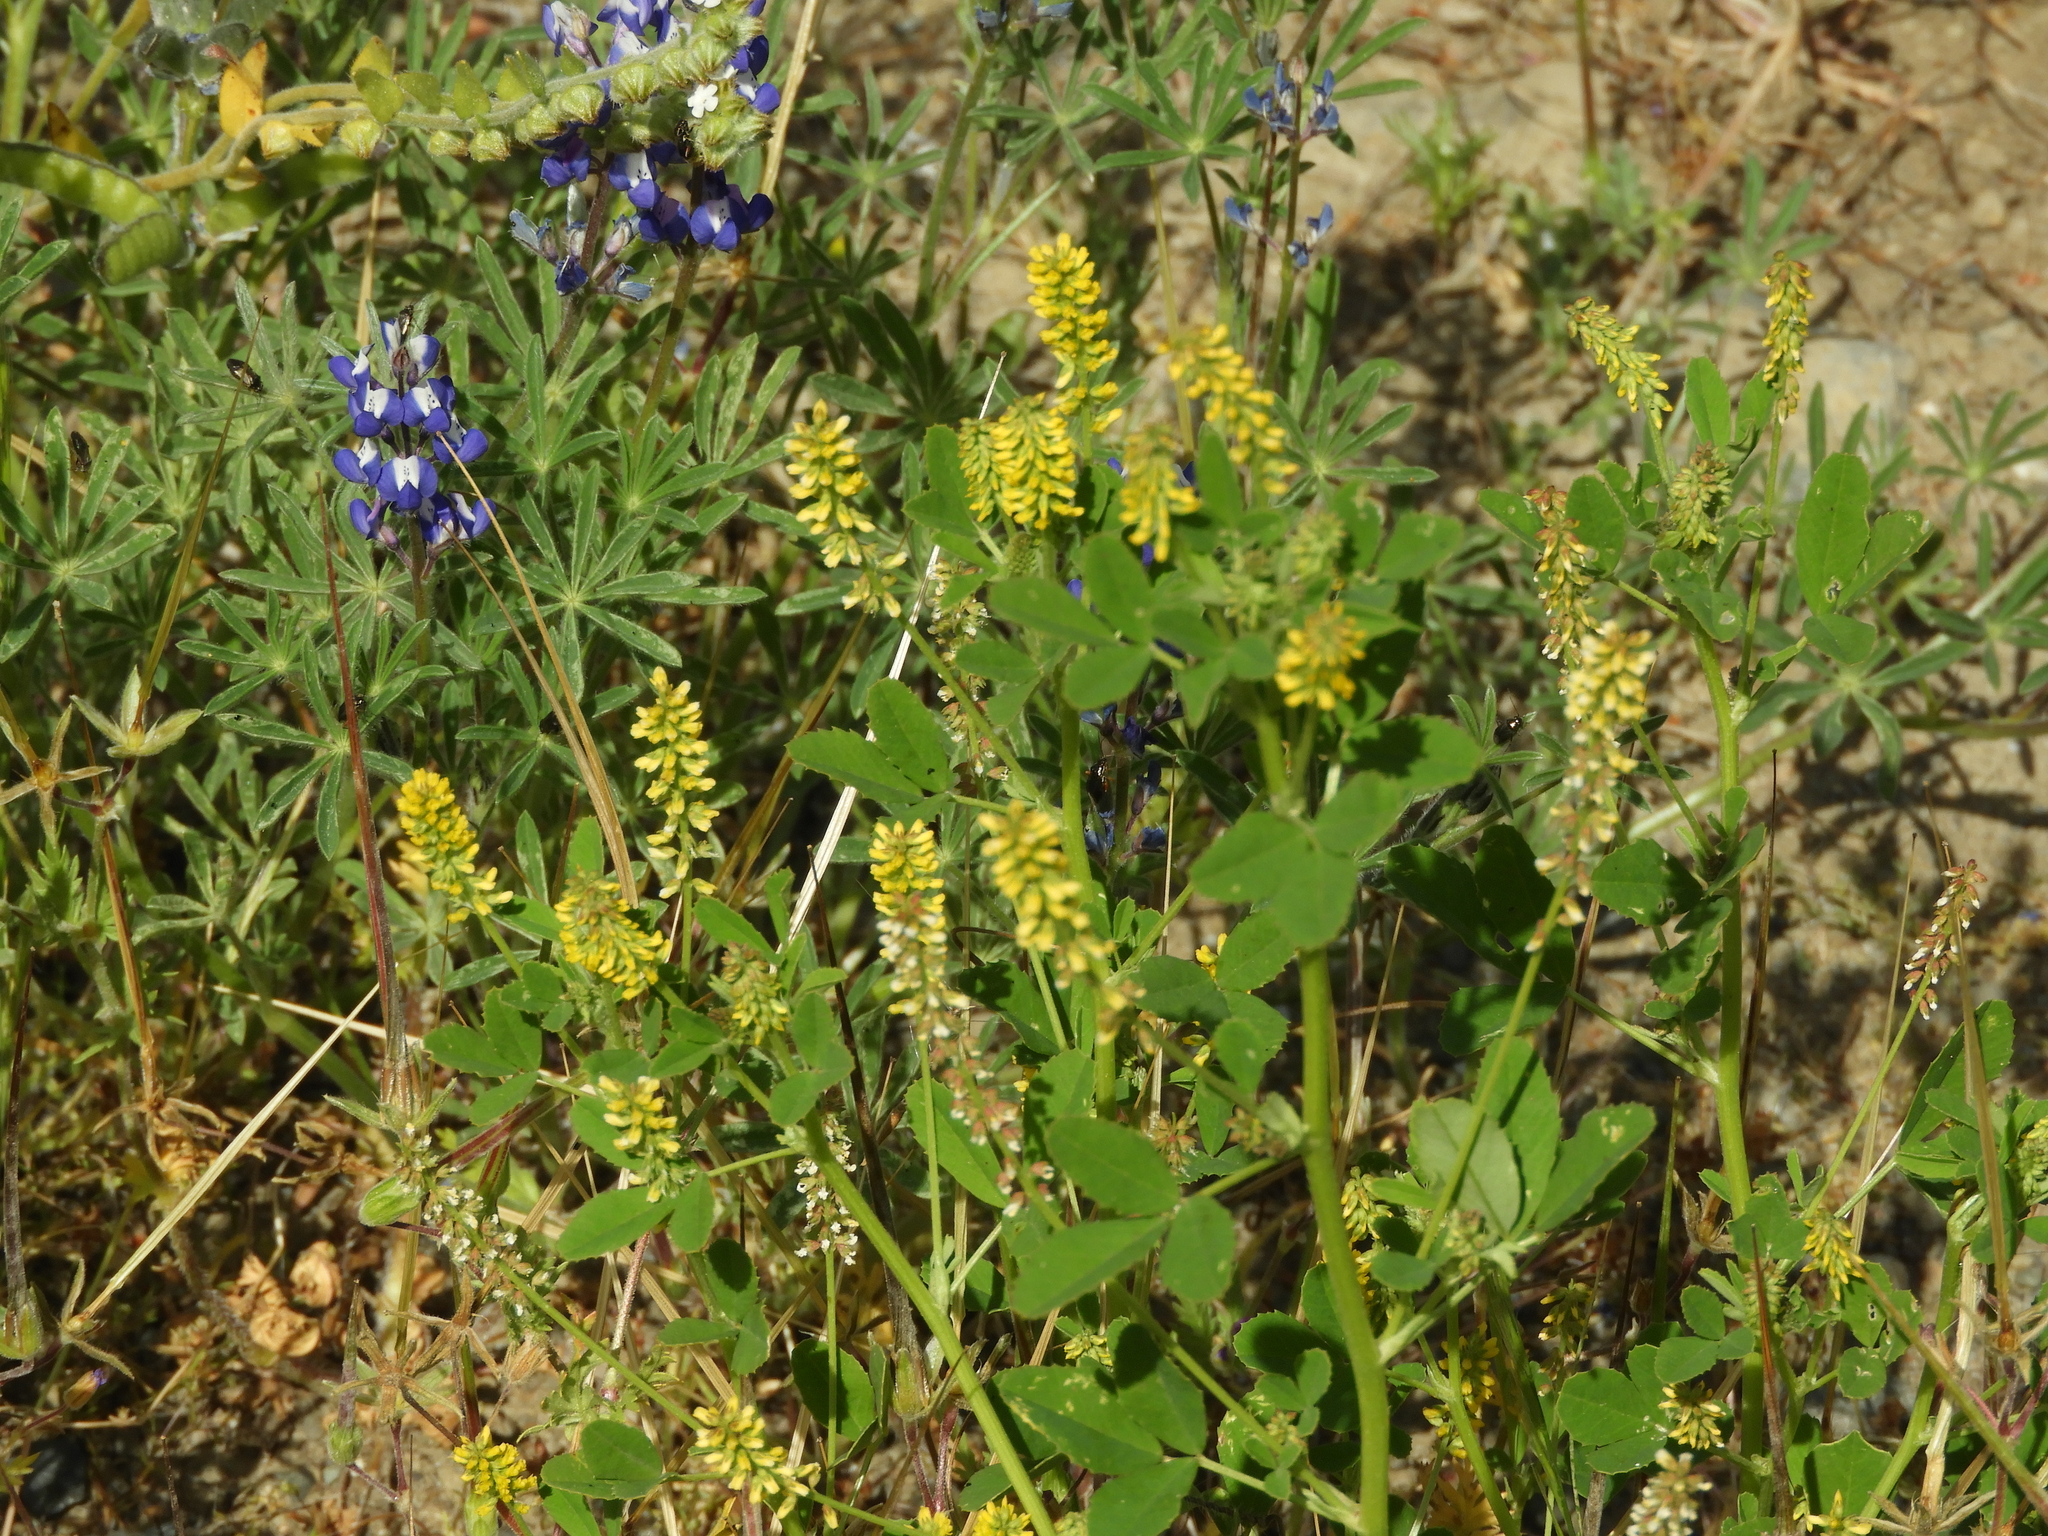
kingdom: Plantae
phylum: Tracheophyta
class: Magnoliopsida
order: Fabales
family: Fabaceae
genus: Melilotus
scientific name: Melilotus indicus
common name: Small melilot
